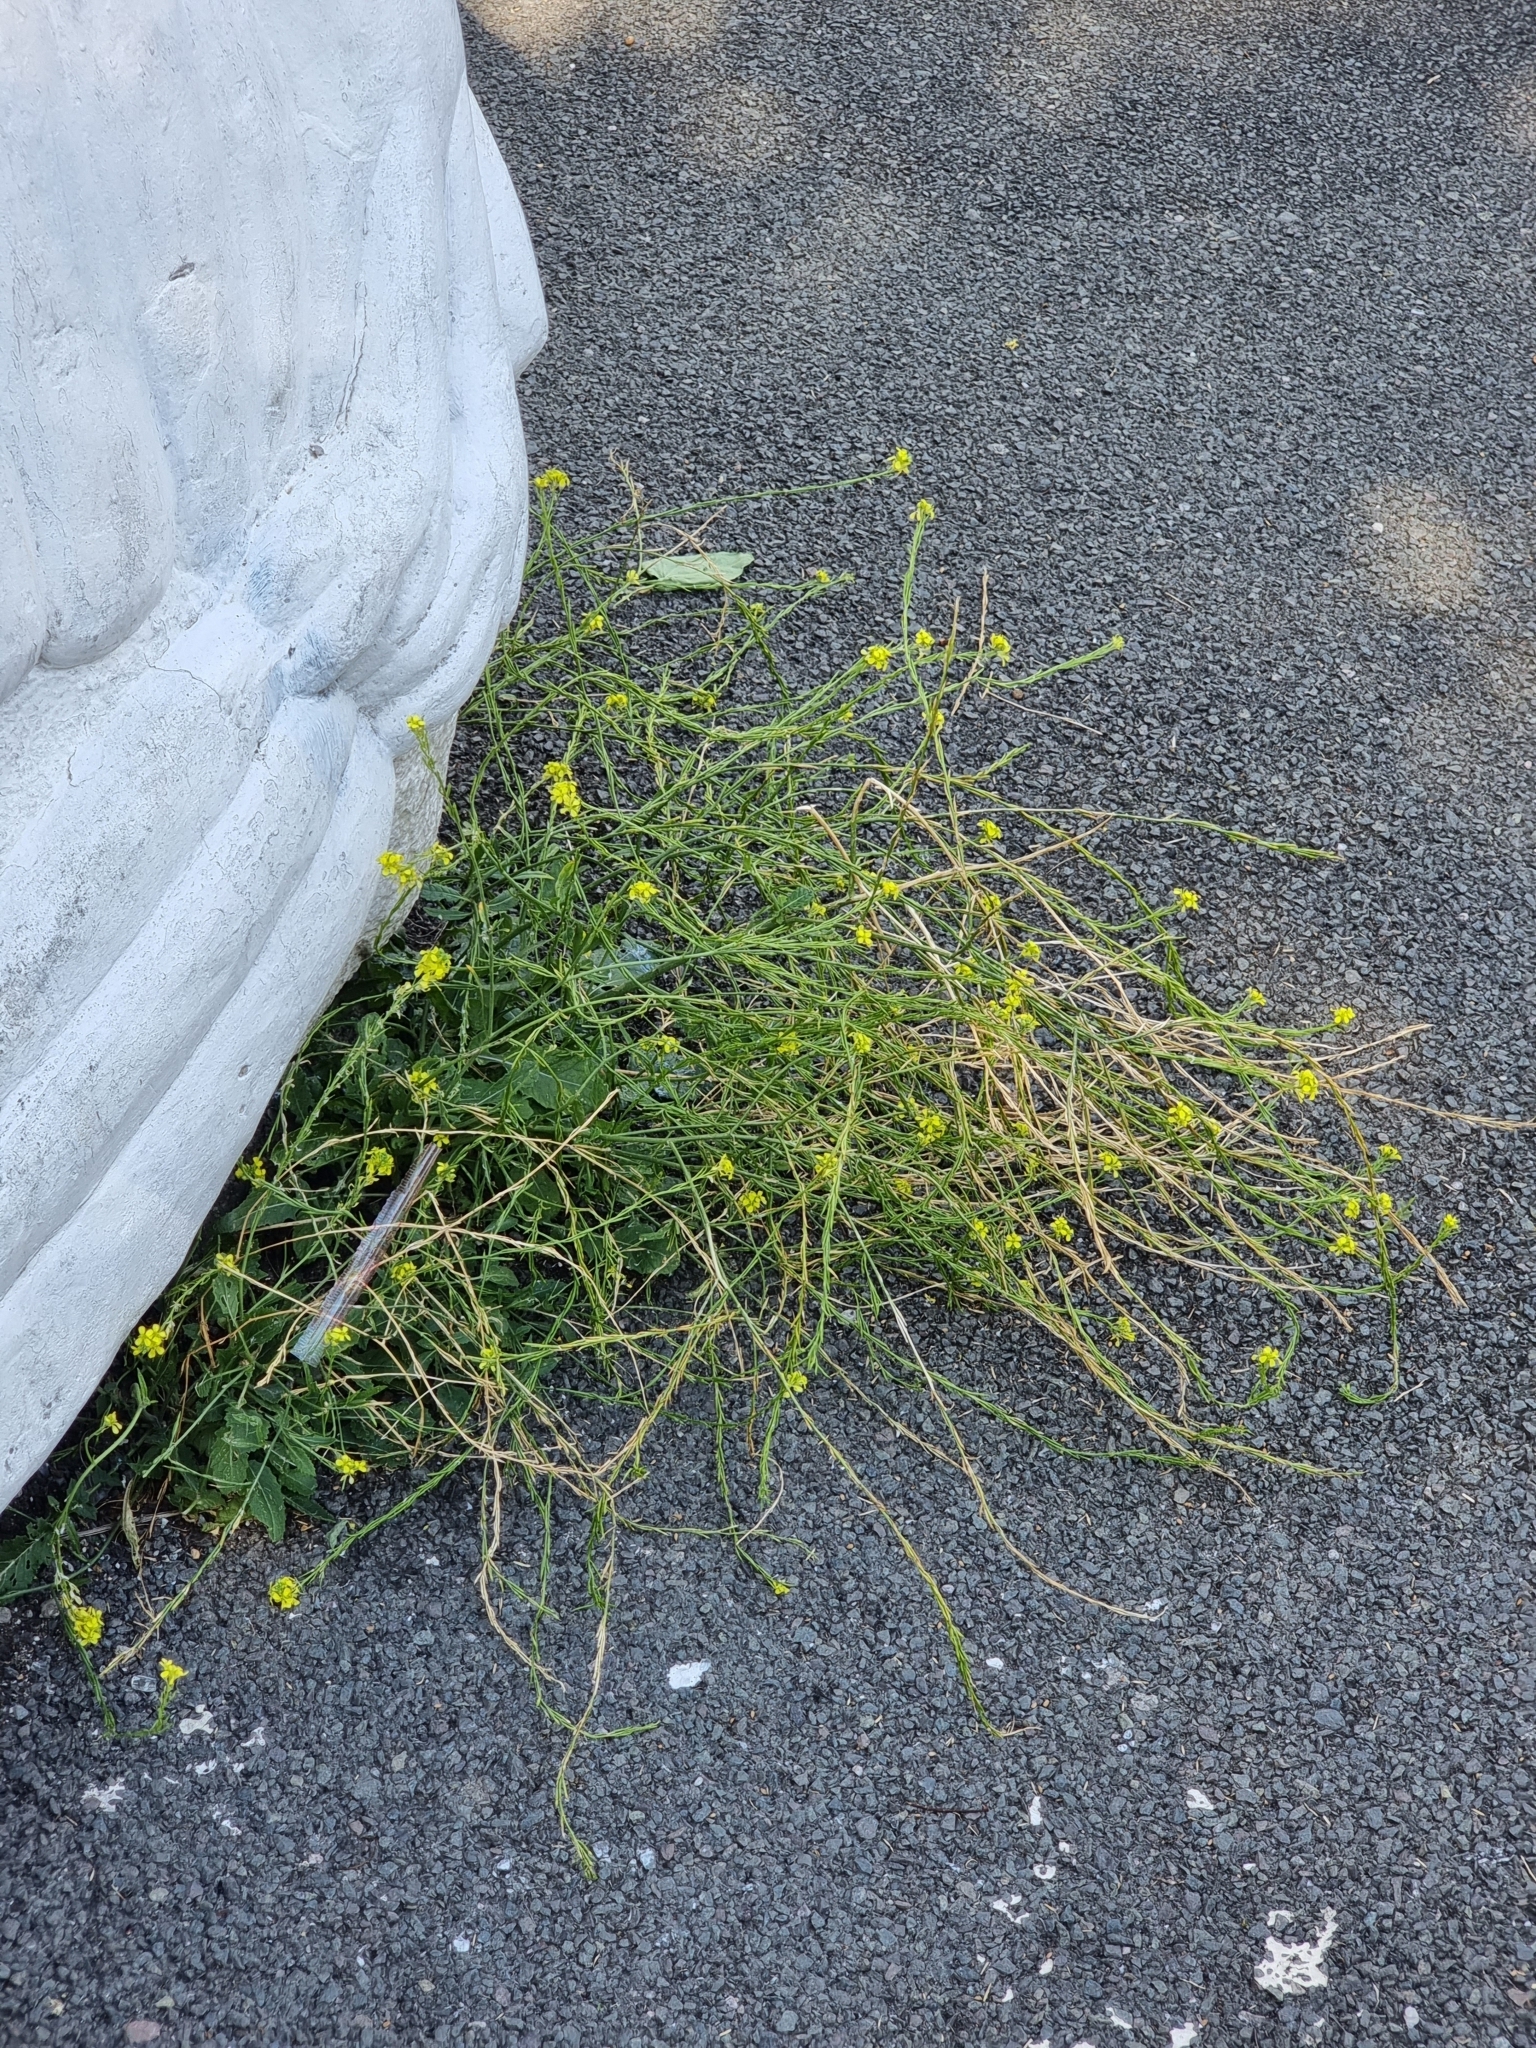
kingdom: Plantae
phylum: Tracheophyta
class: Magnoliopsida
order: Brassicales
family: Brassicaceae
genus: Hirschfeldia
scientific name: Hirschfeldia incana
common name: Hoary mustard
